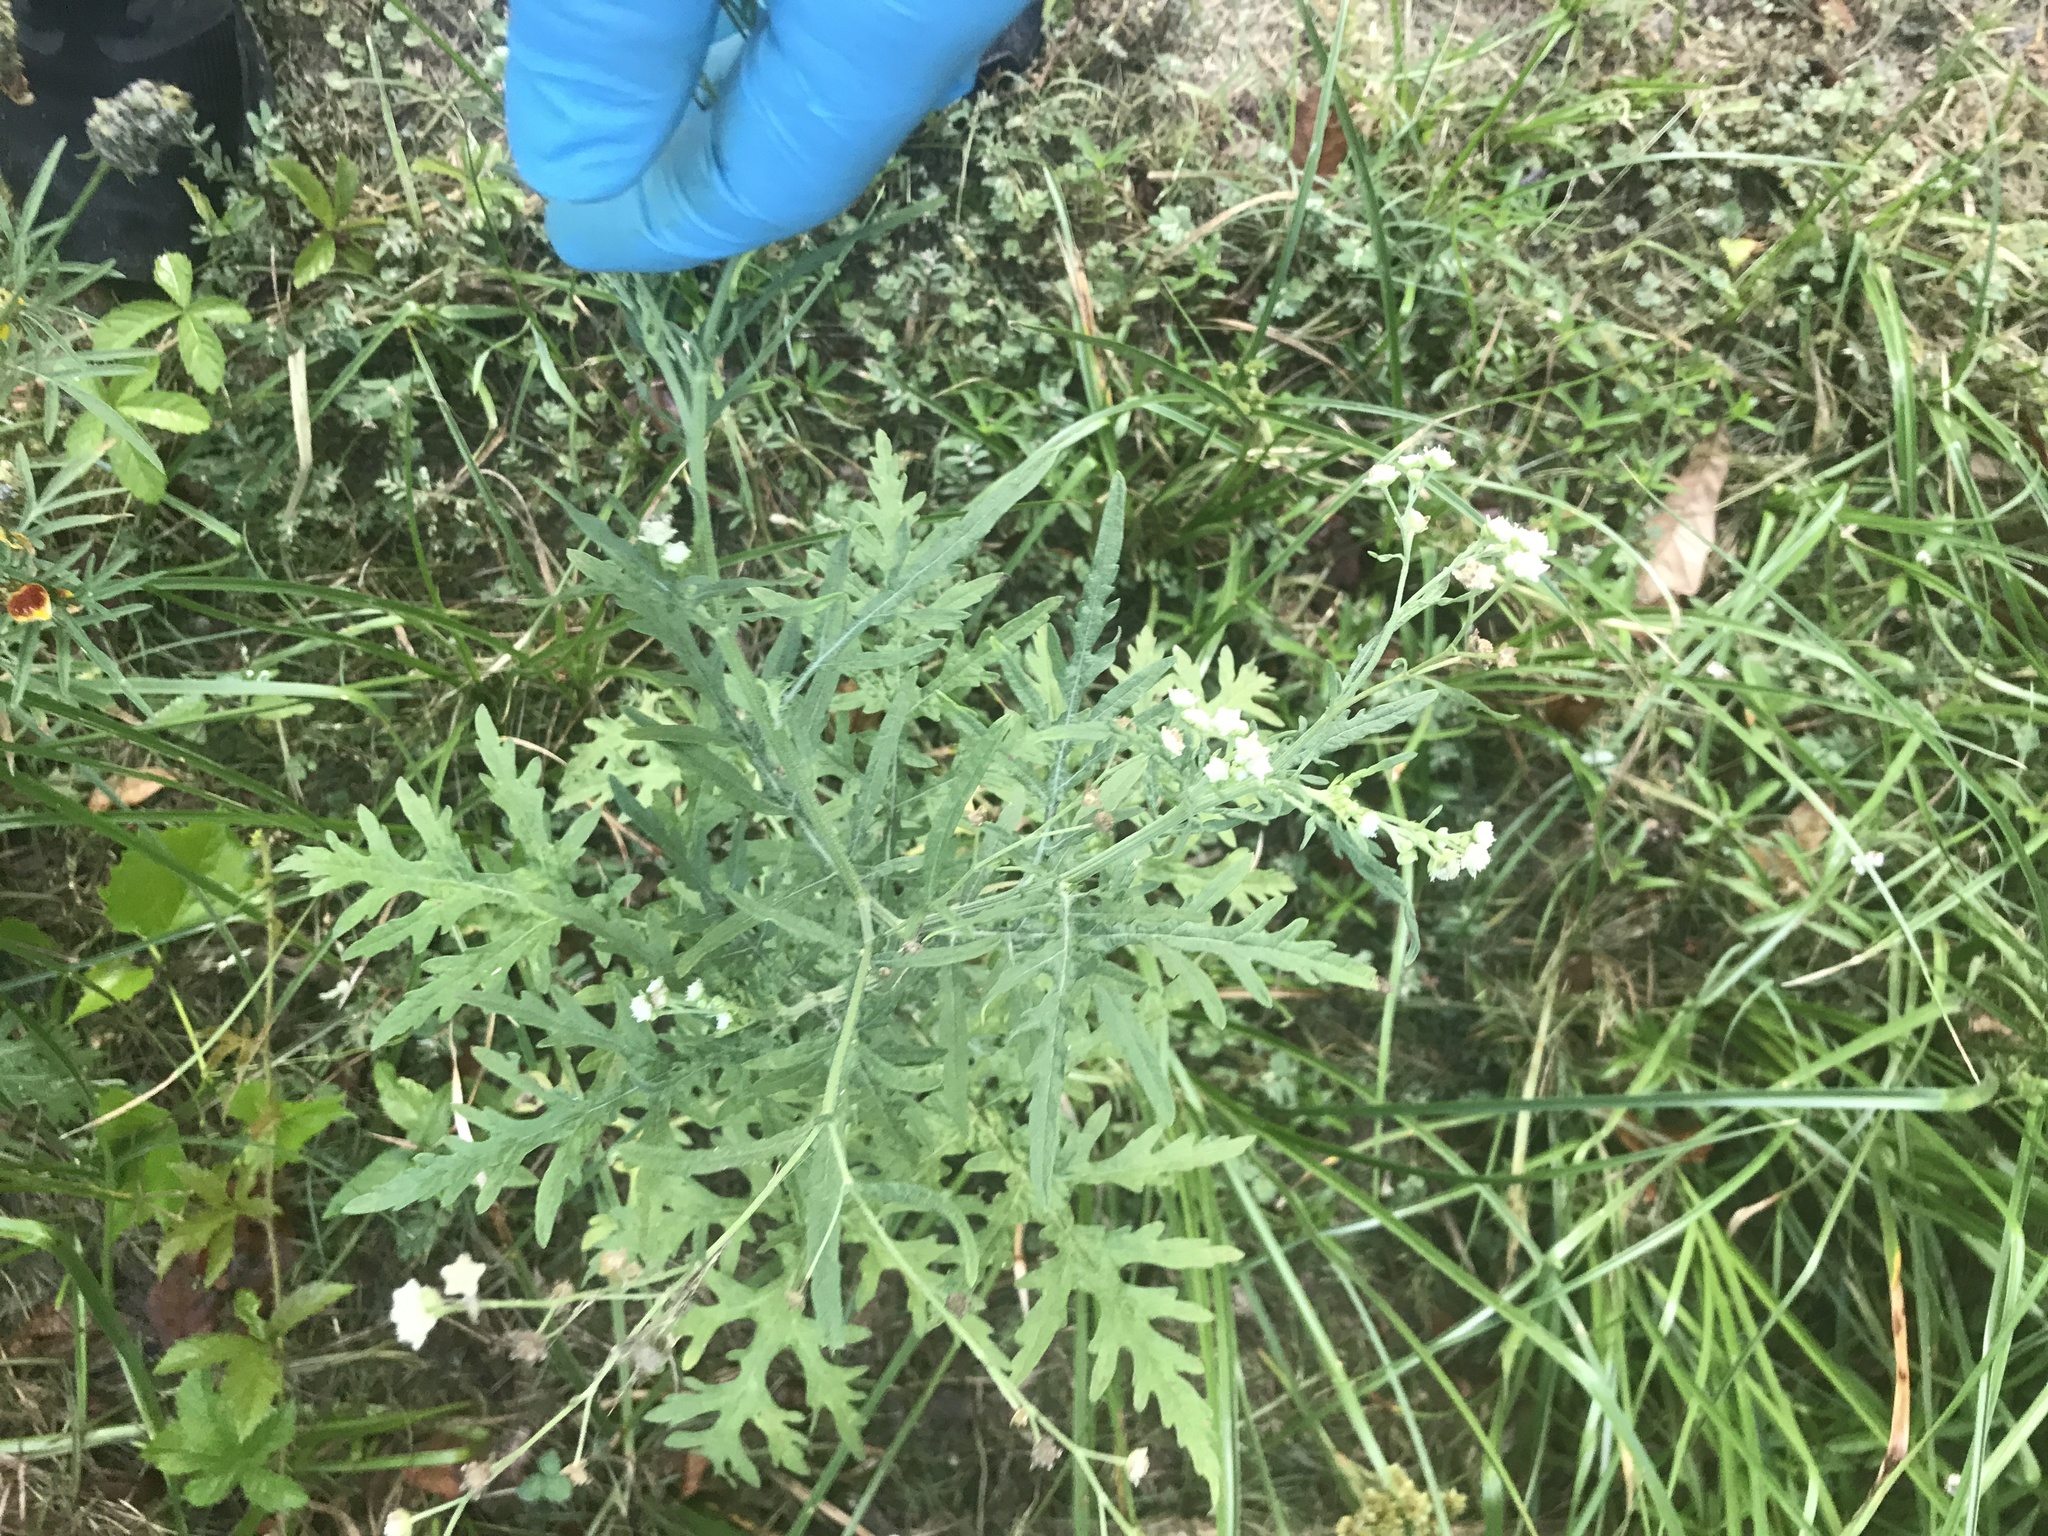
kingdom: Plantae
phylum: Tracheophyta
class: Magnoliopsida
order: Asterales
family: Asteraceae
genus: Parthenium
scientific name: Parthenium hysterophorus
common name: Santa maria feverfew
